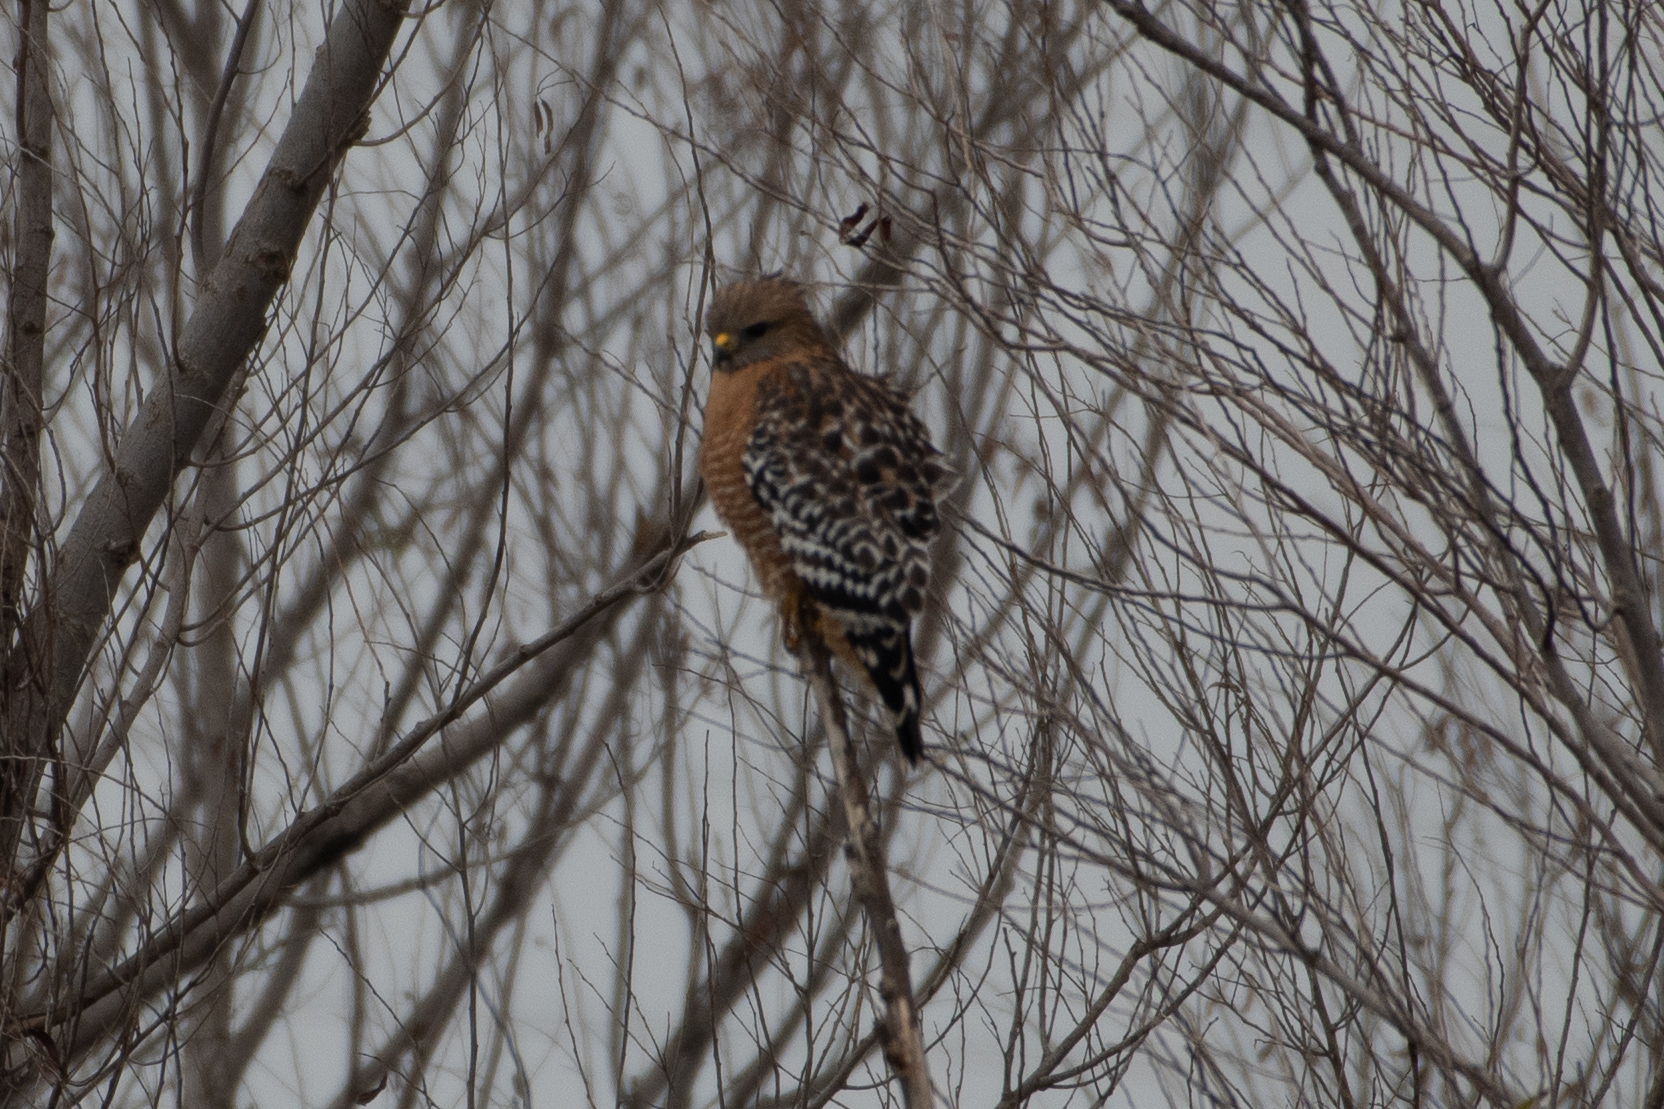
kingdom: Animalia
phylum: Chordata
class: Aves
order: Accipitriformes
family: Accipitridae
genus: Buteo
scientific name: Buteo lineatus
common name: Red-shouldered hawk
